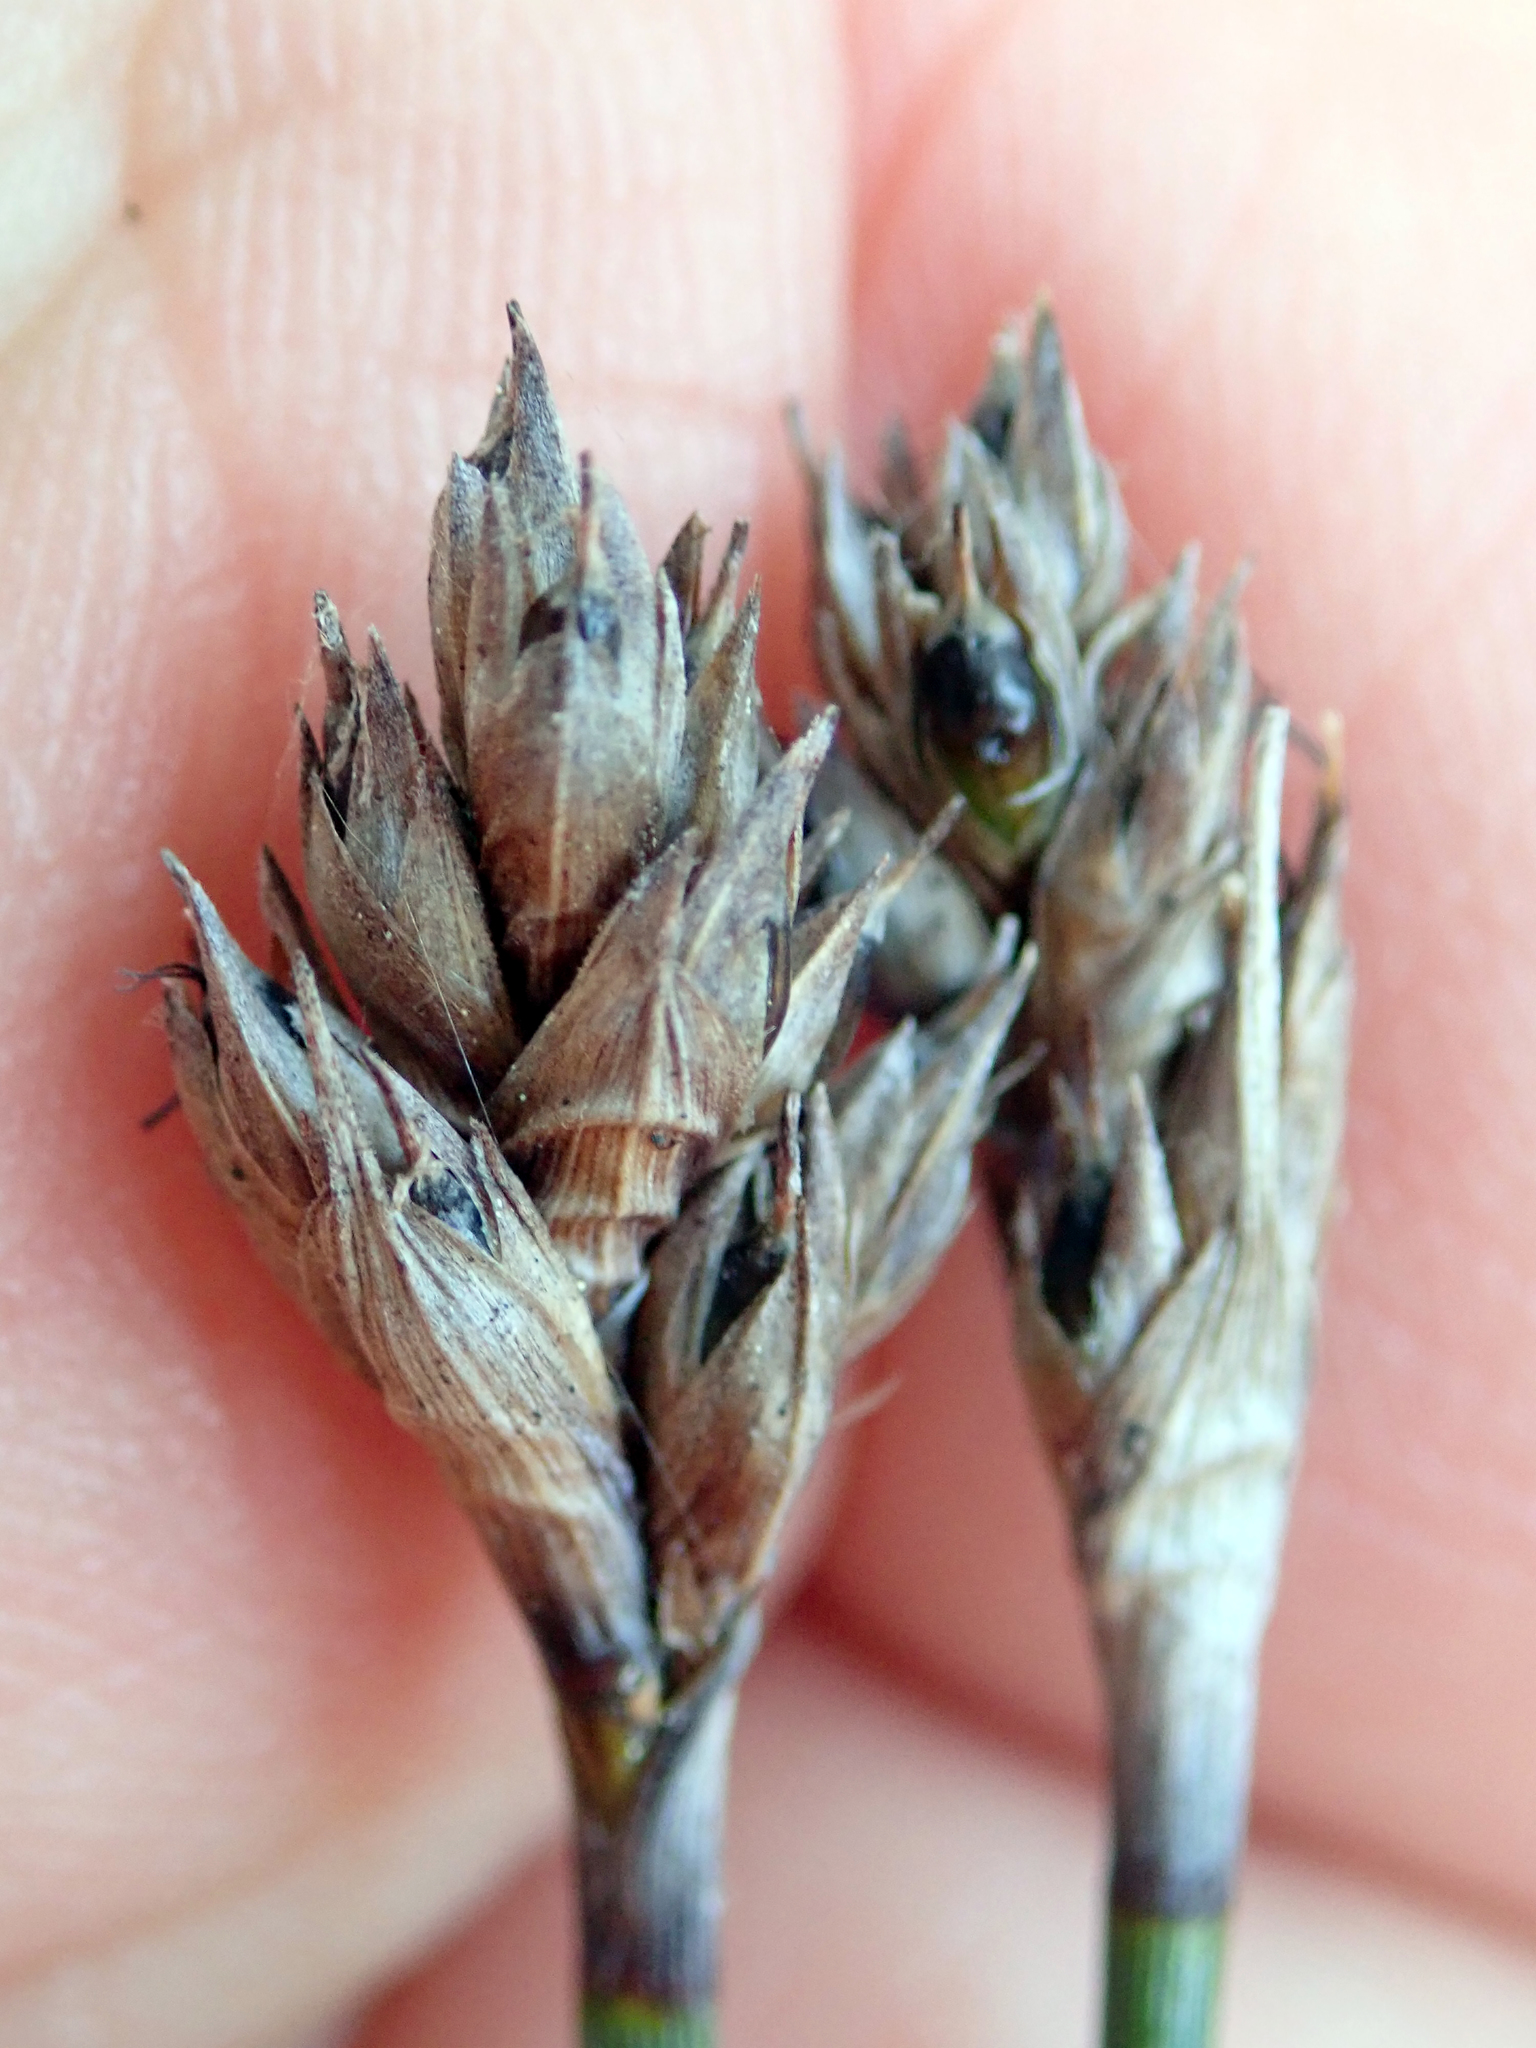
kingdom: Plantae
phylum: Tracheophyta
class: Liliopsida
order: Poales
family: Cyperaceae
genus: Lepidosperma
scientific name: Lepidosperma australe
